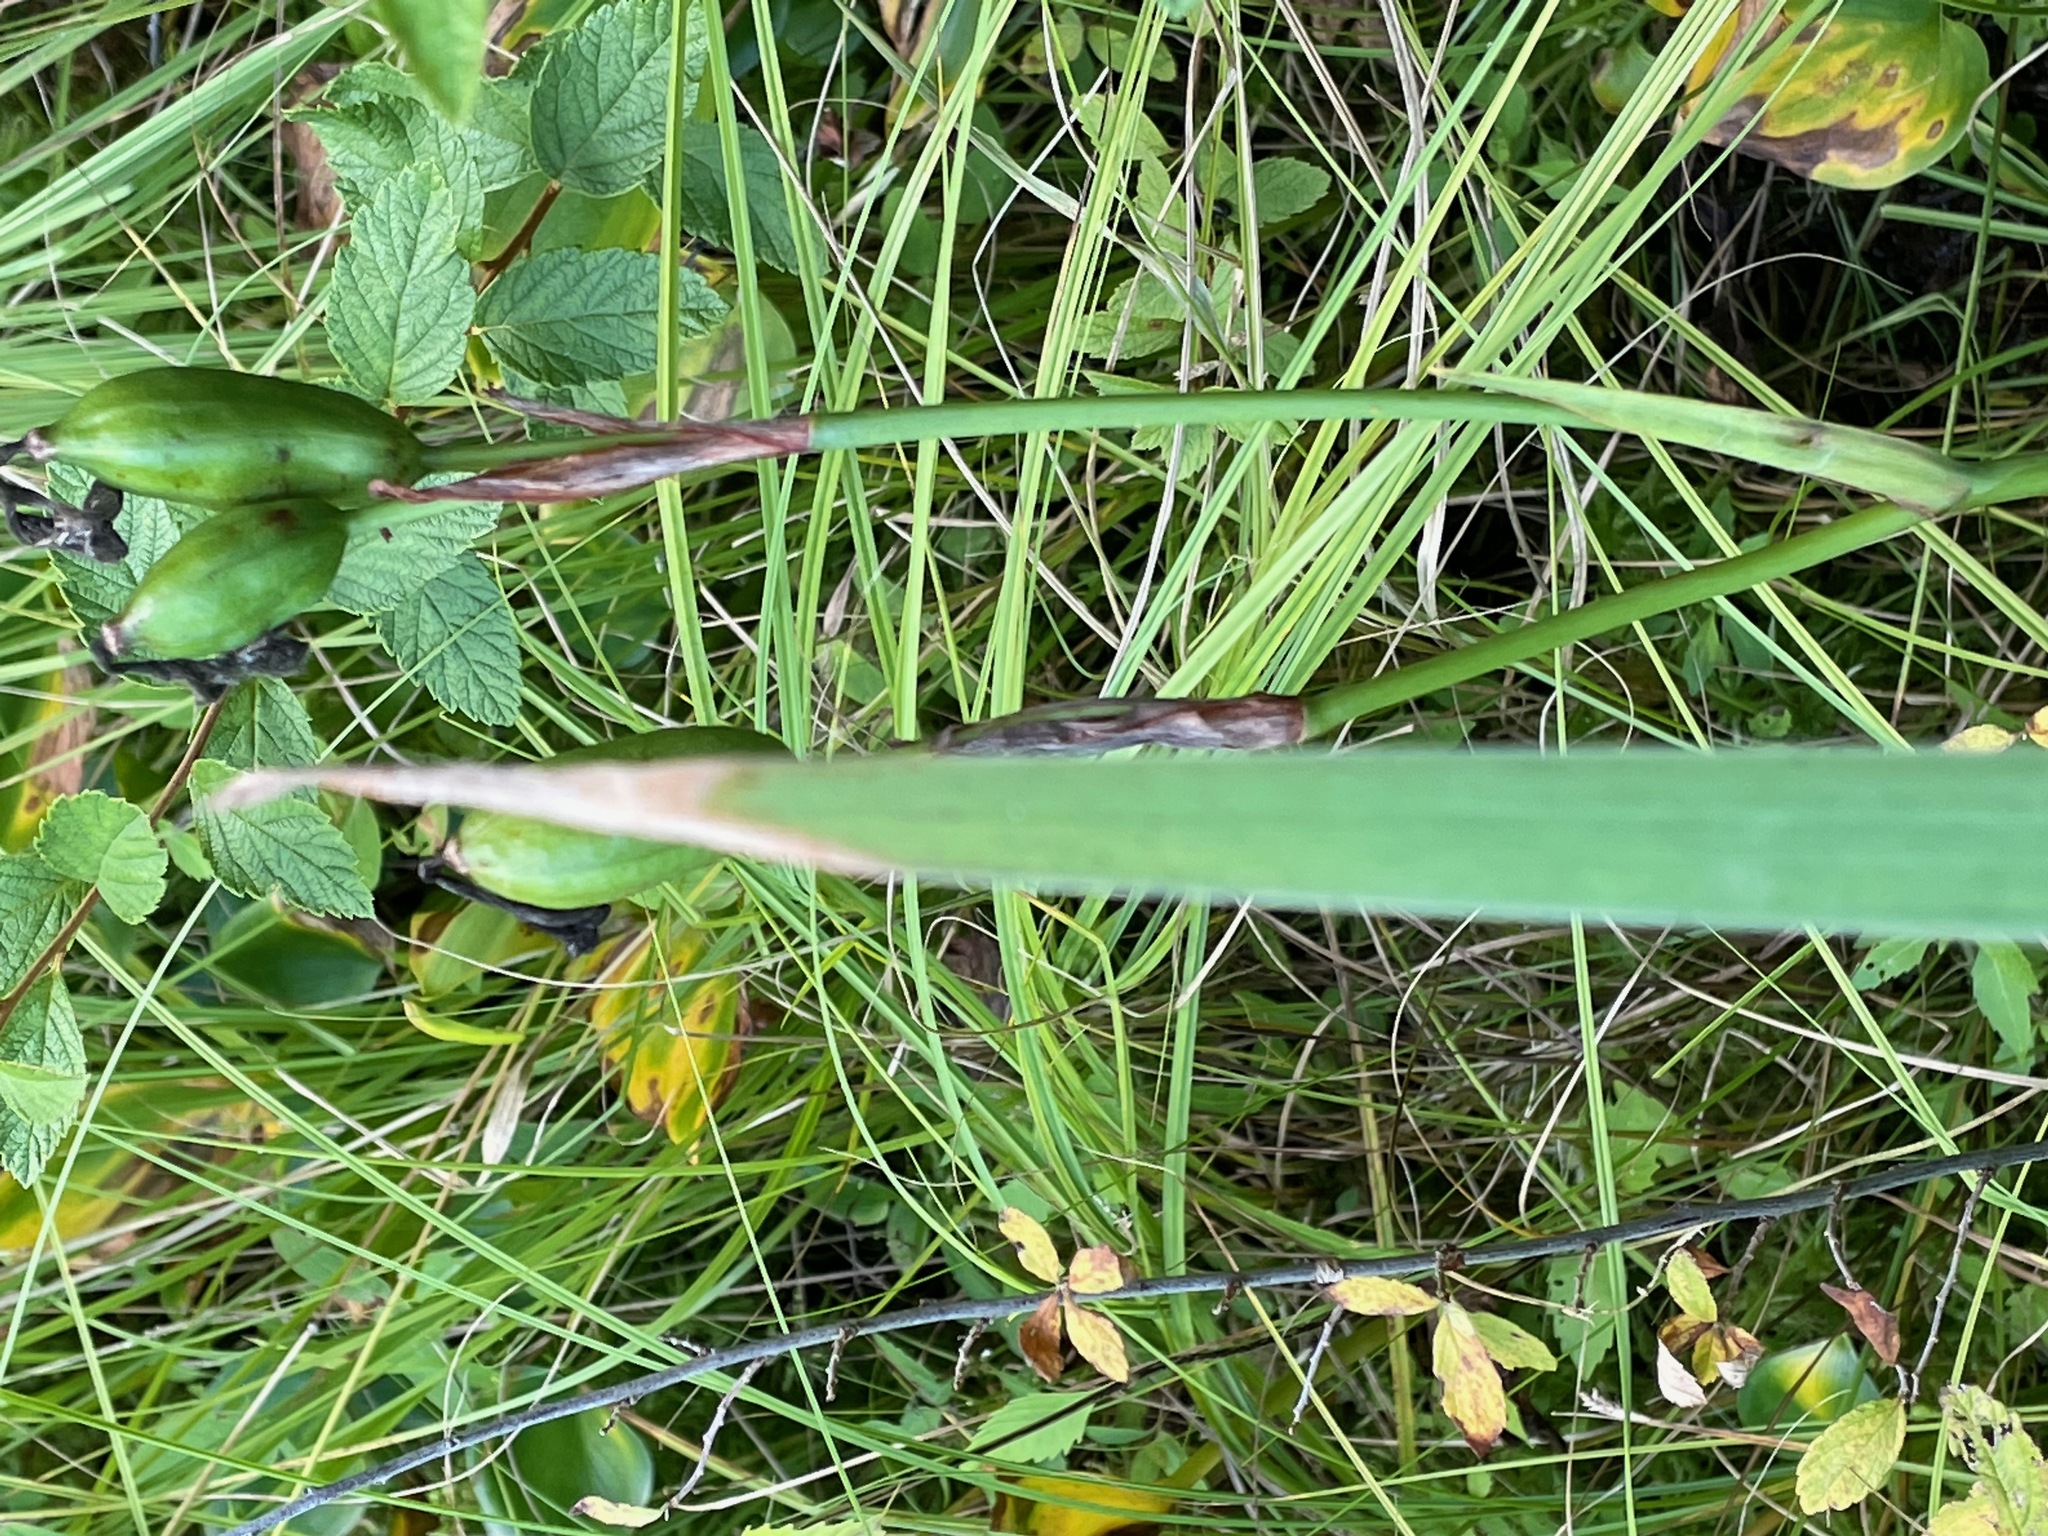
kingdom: Plantae
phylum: Tracheophyta
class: Liliopsida
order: Asparagales
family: Iridaceae
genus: Iris
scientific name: Iris versicolor
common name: Purple iris
